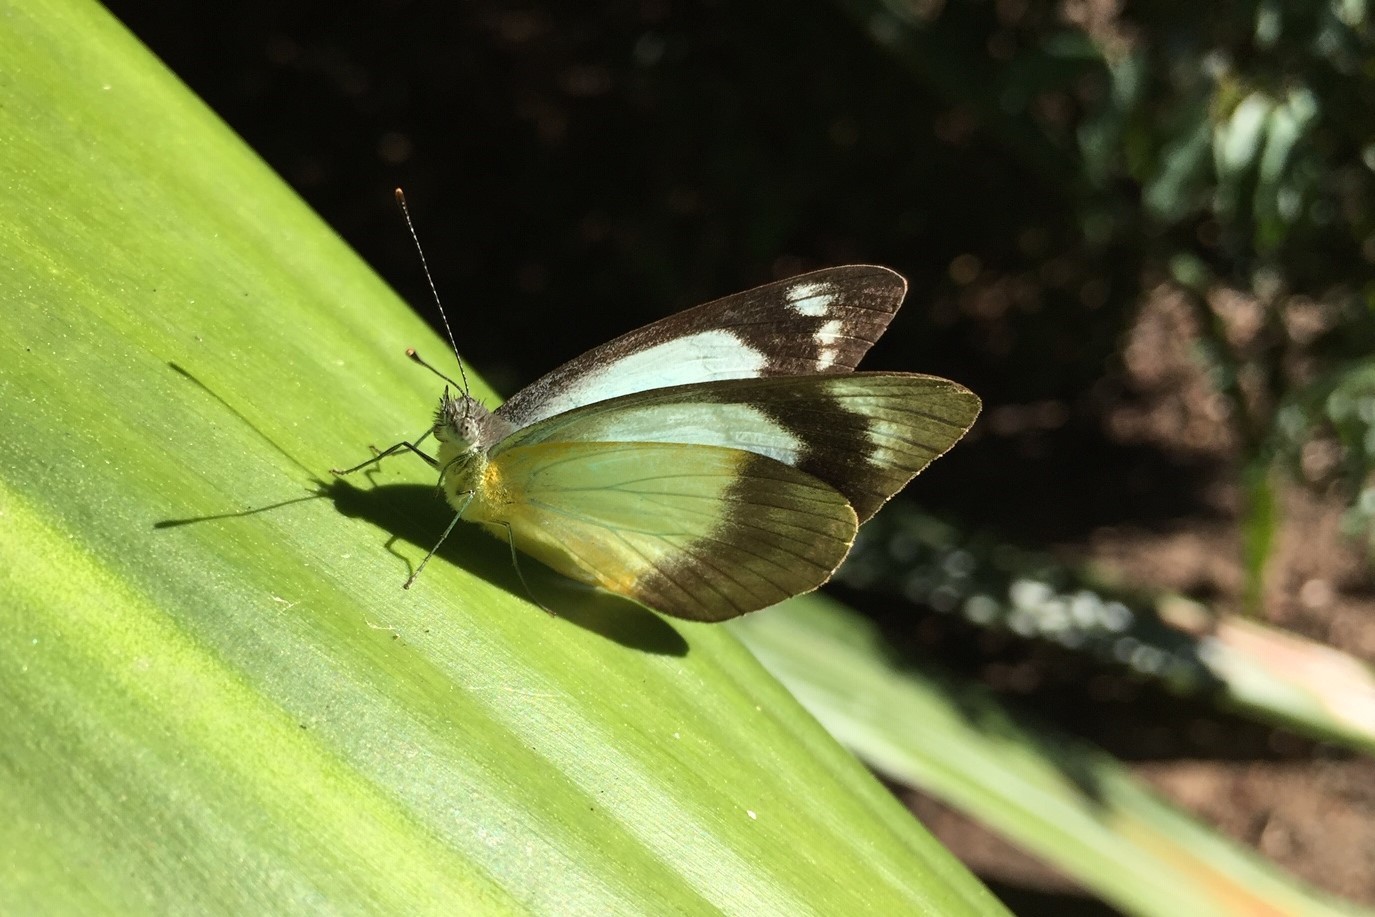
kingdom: Animalia
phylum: Arthropoda
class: Insecta
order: Lepidoptera
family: Pieridae
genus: Appias
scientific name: Appias paulina
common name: Ceylon lesser albatross
